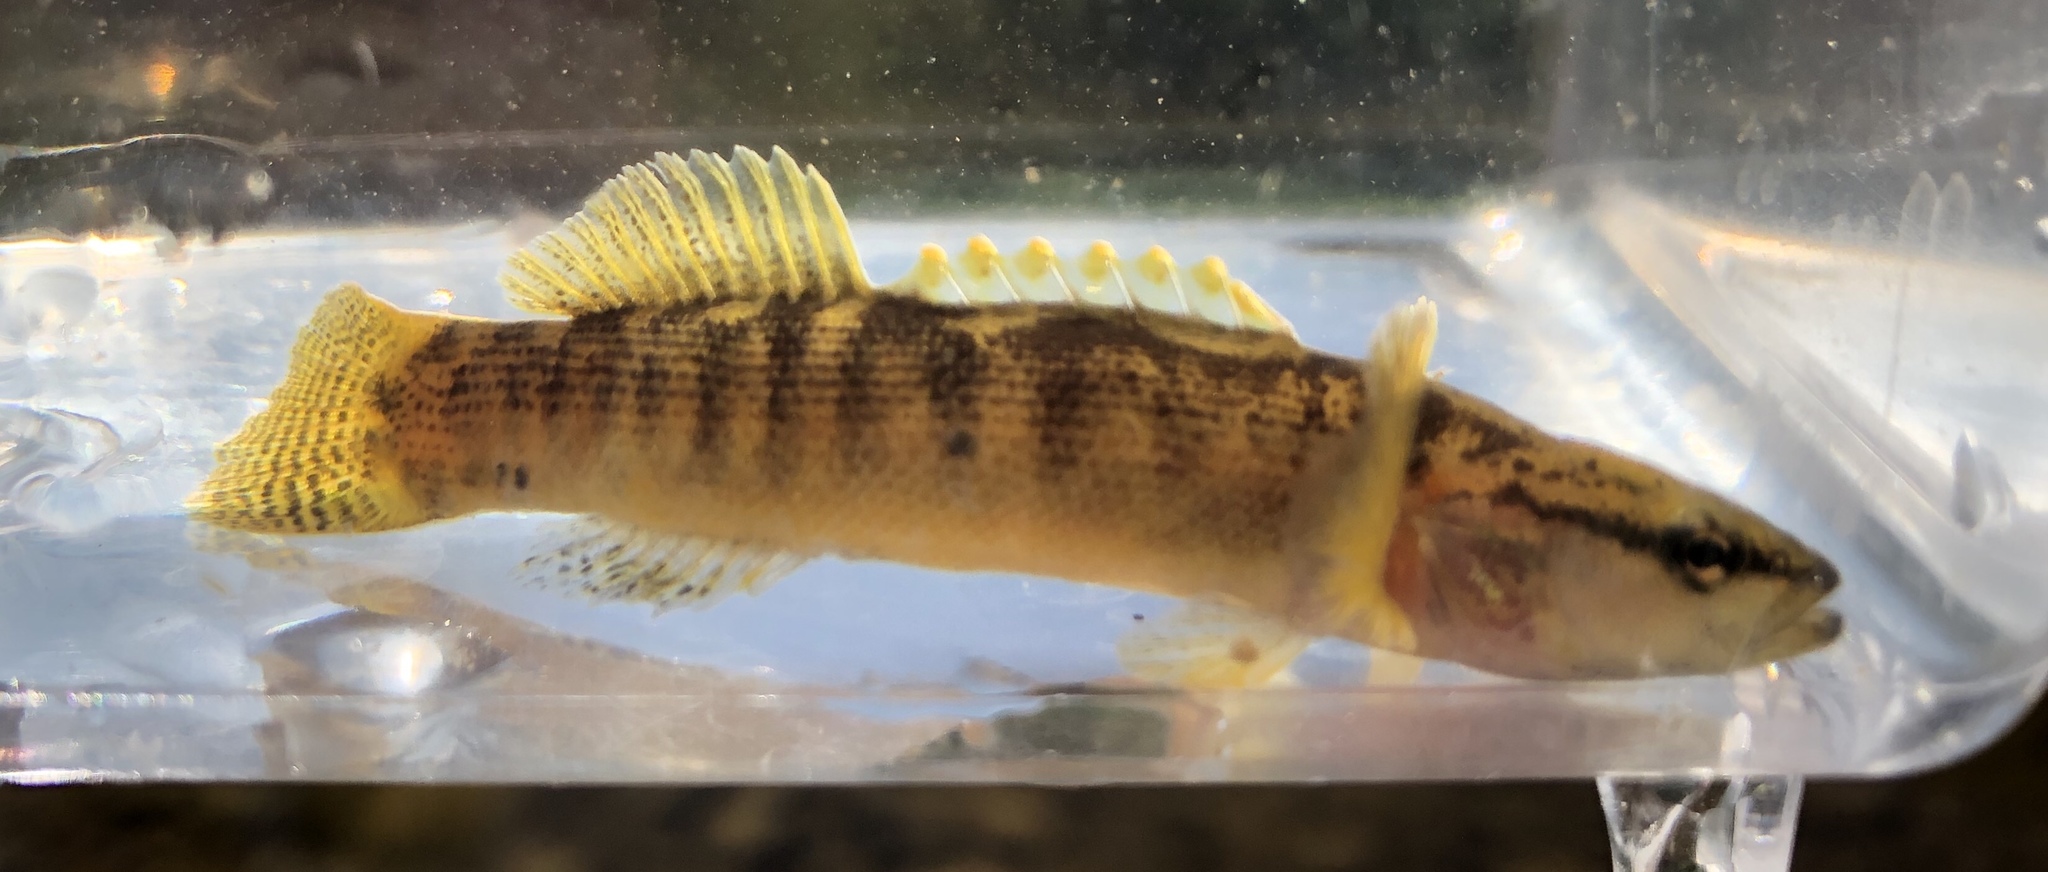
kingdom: Animalia
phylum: Chordata
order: Perciformes
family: Percidae
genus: Etheostoma
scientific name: Etheostoma flabellare
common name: Fantail darter
